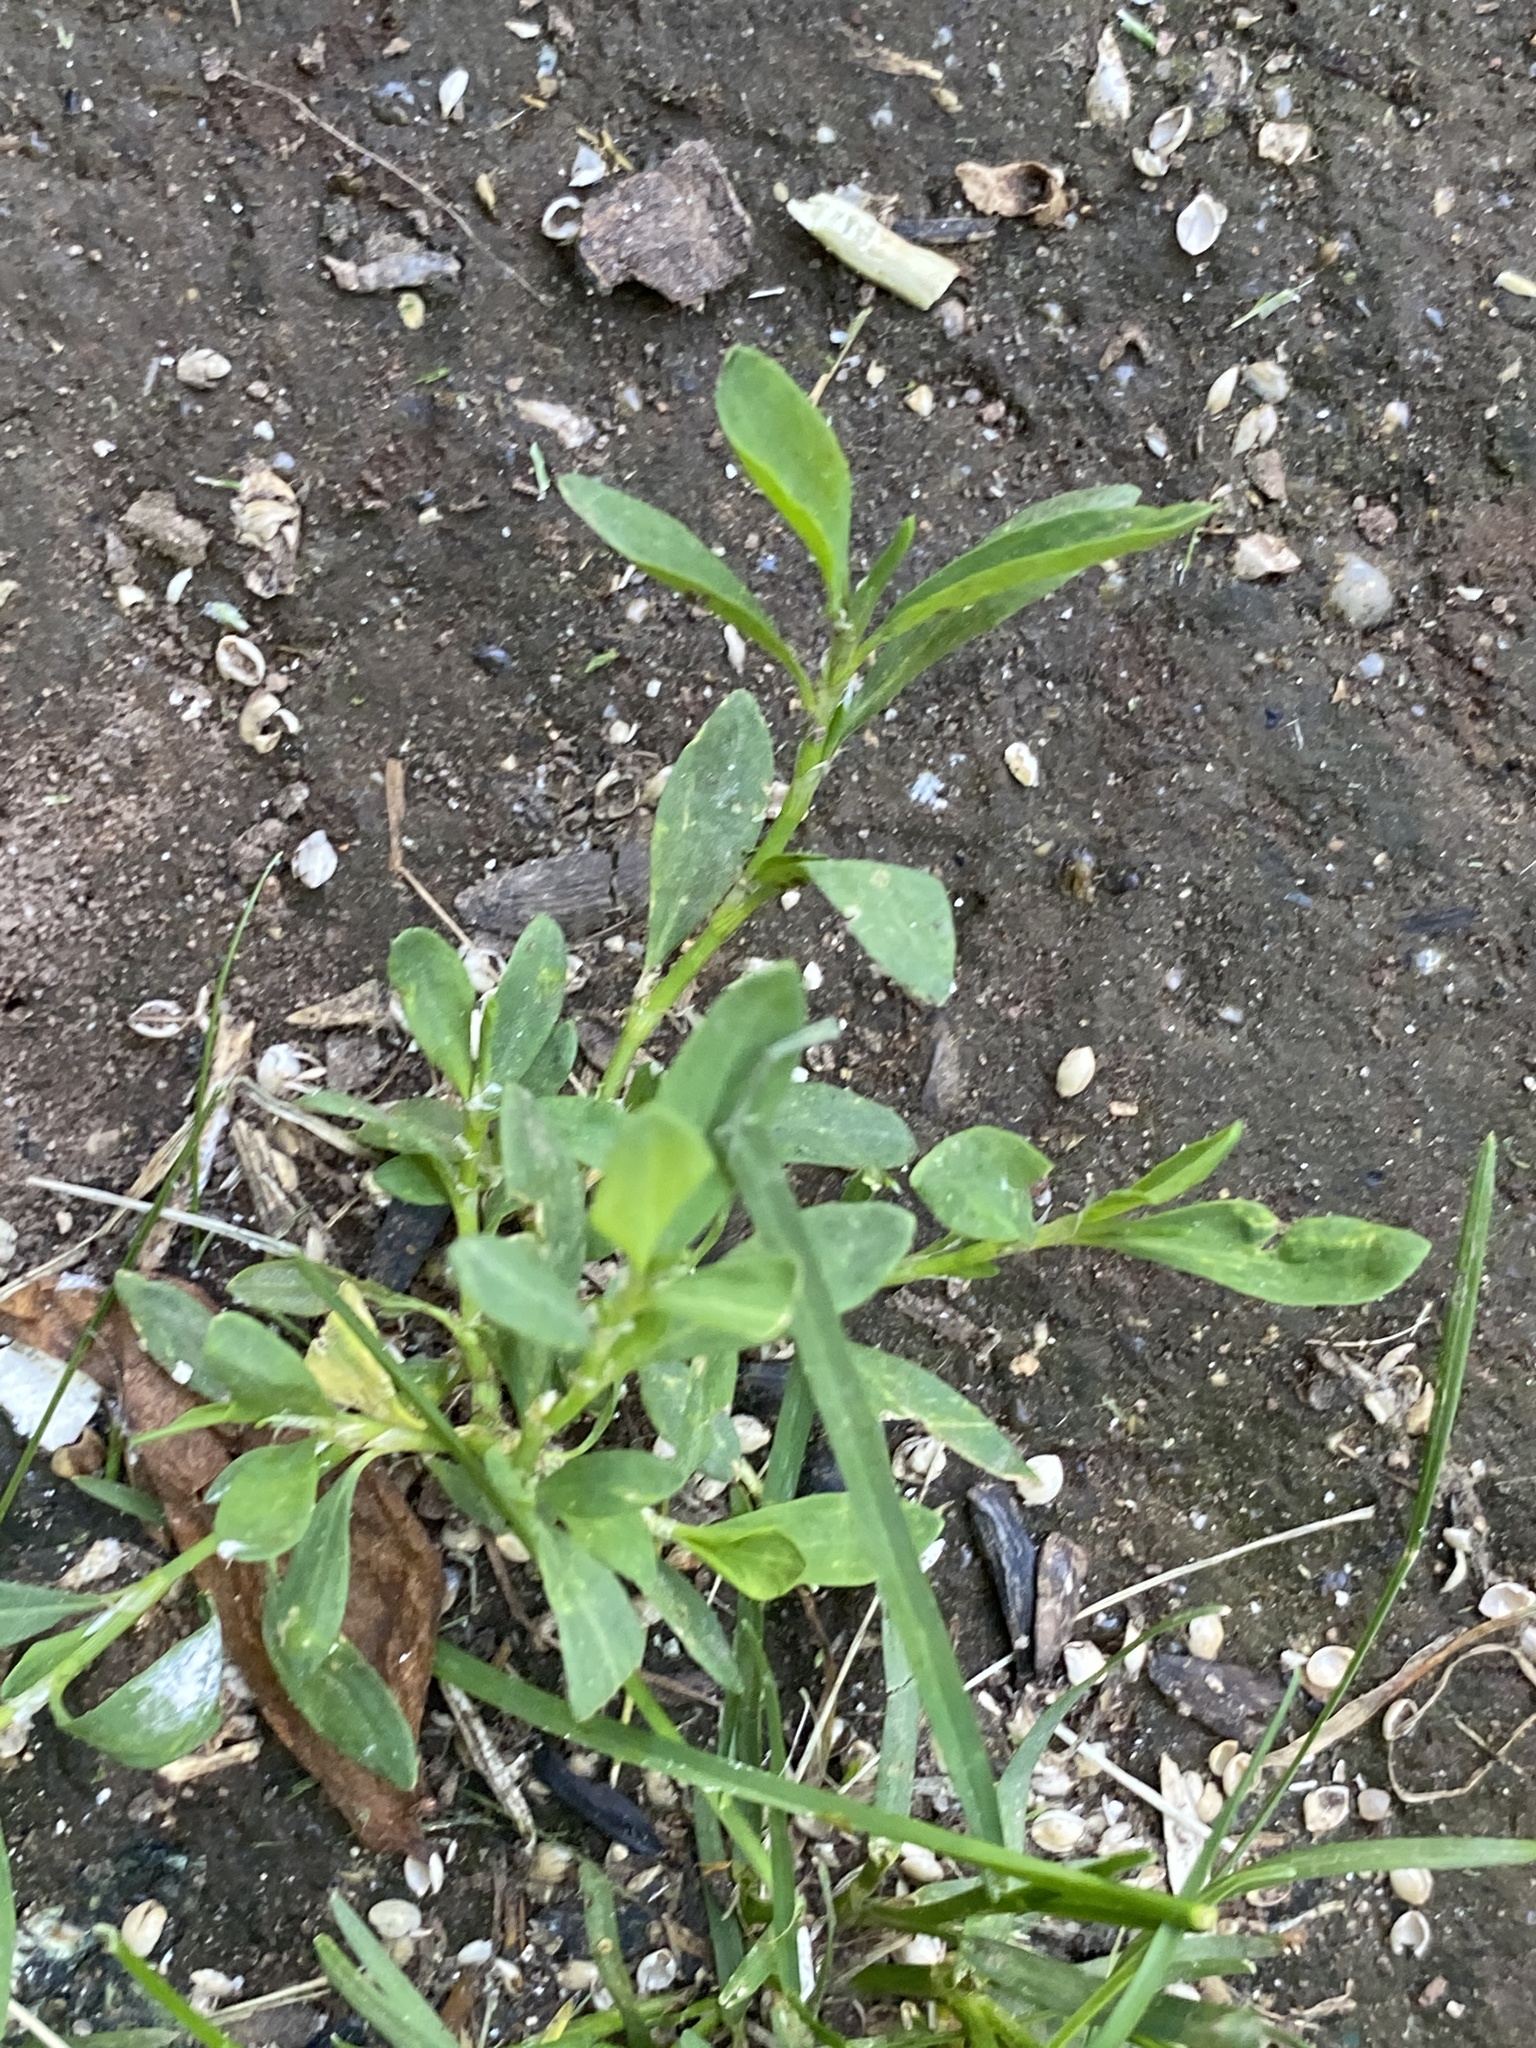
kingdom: Plantae
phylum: Tracheophyta
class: Magnoliopsida
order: Caryophyllales
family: Polygonaceae
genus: Polygonum
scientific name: Polygonum aviculare
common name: Prostrate knotweed
